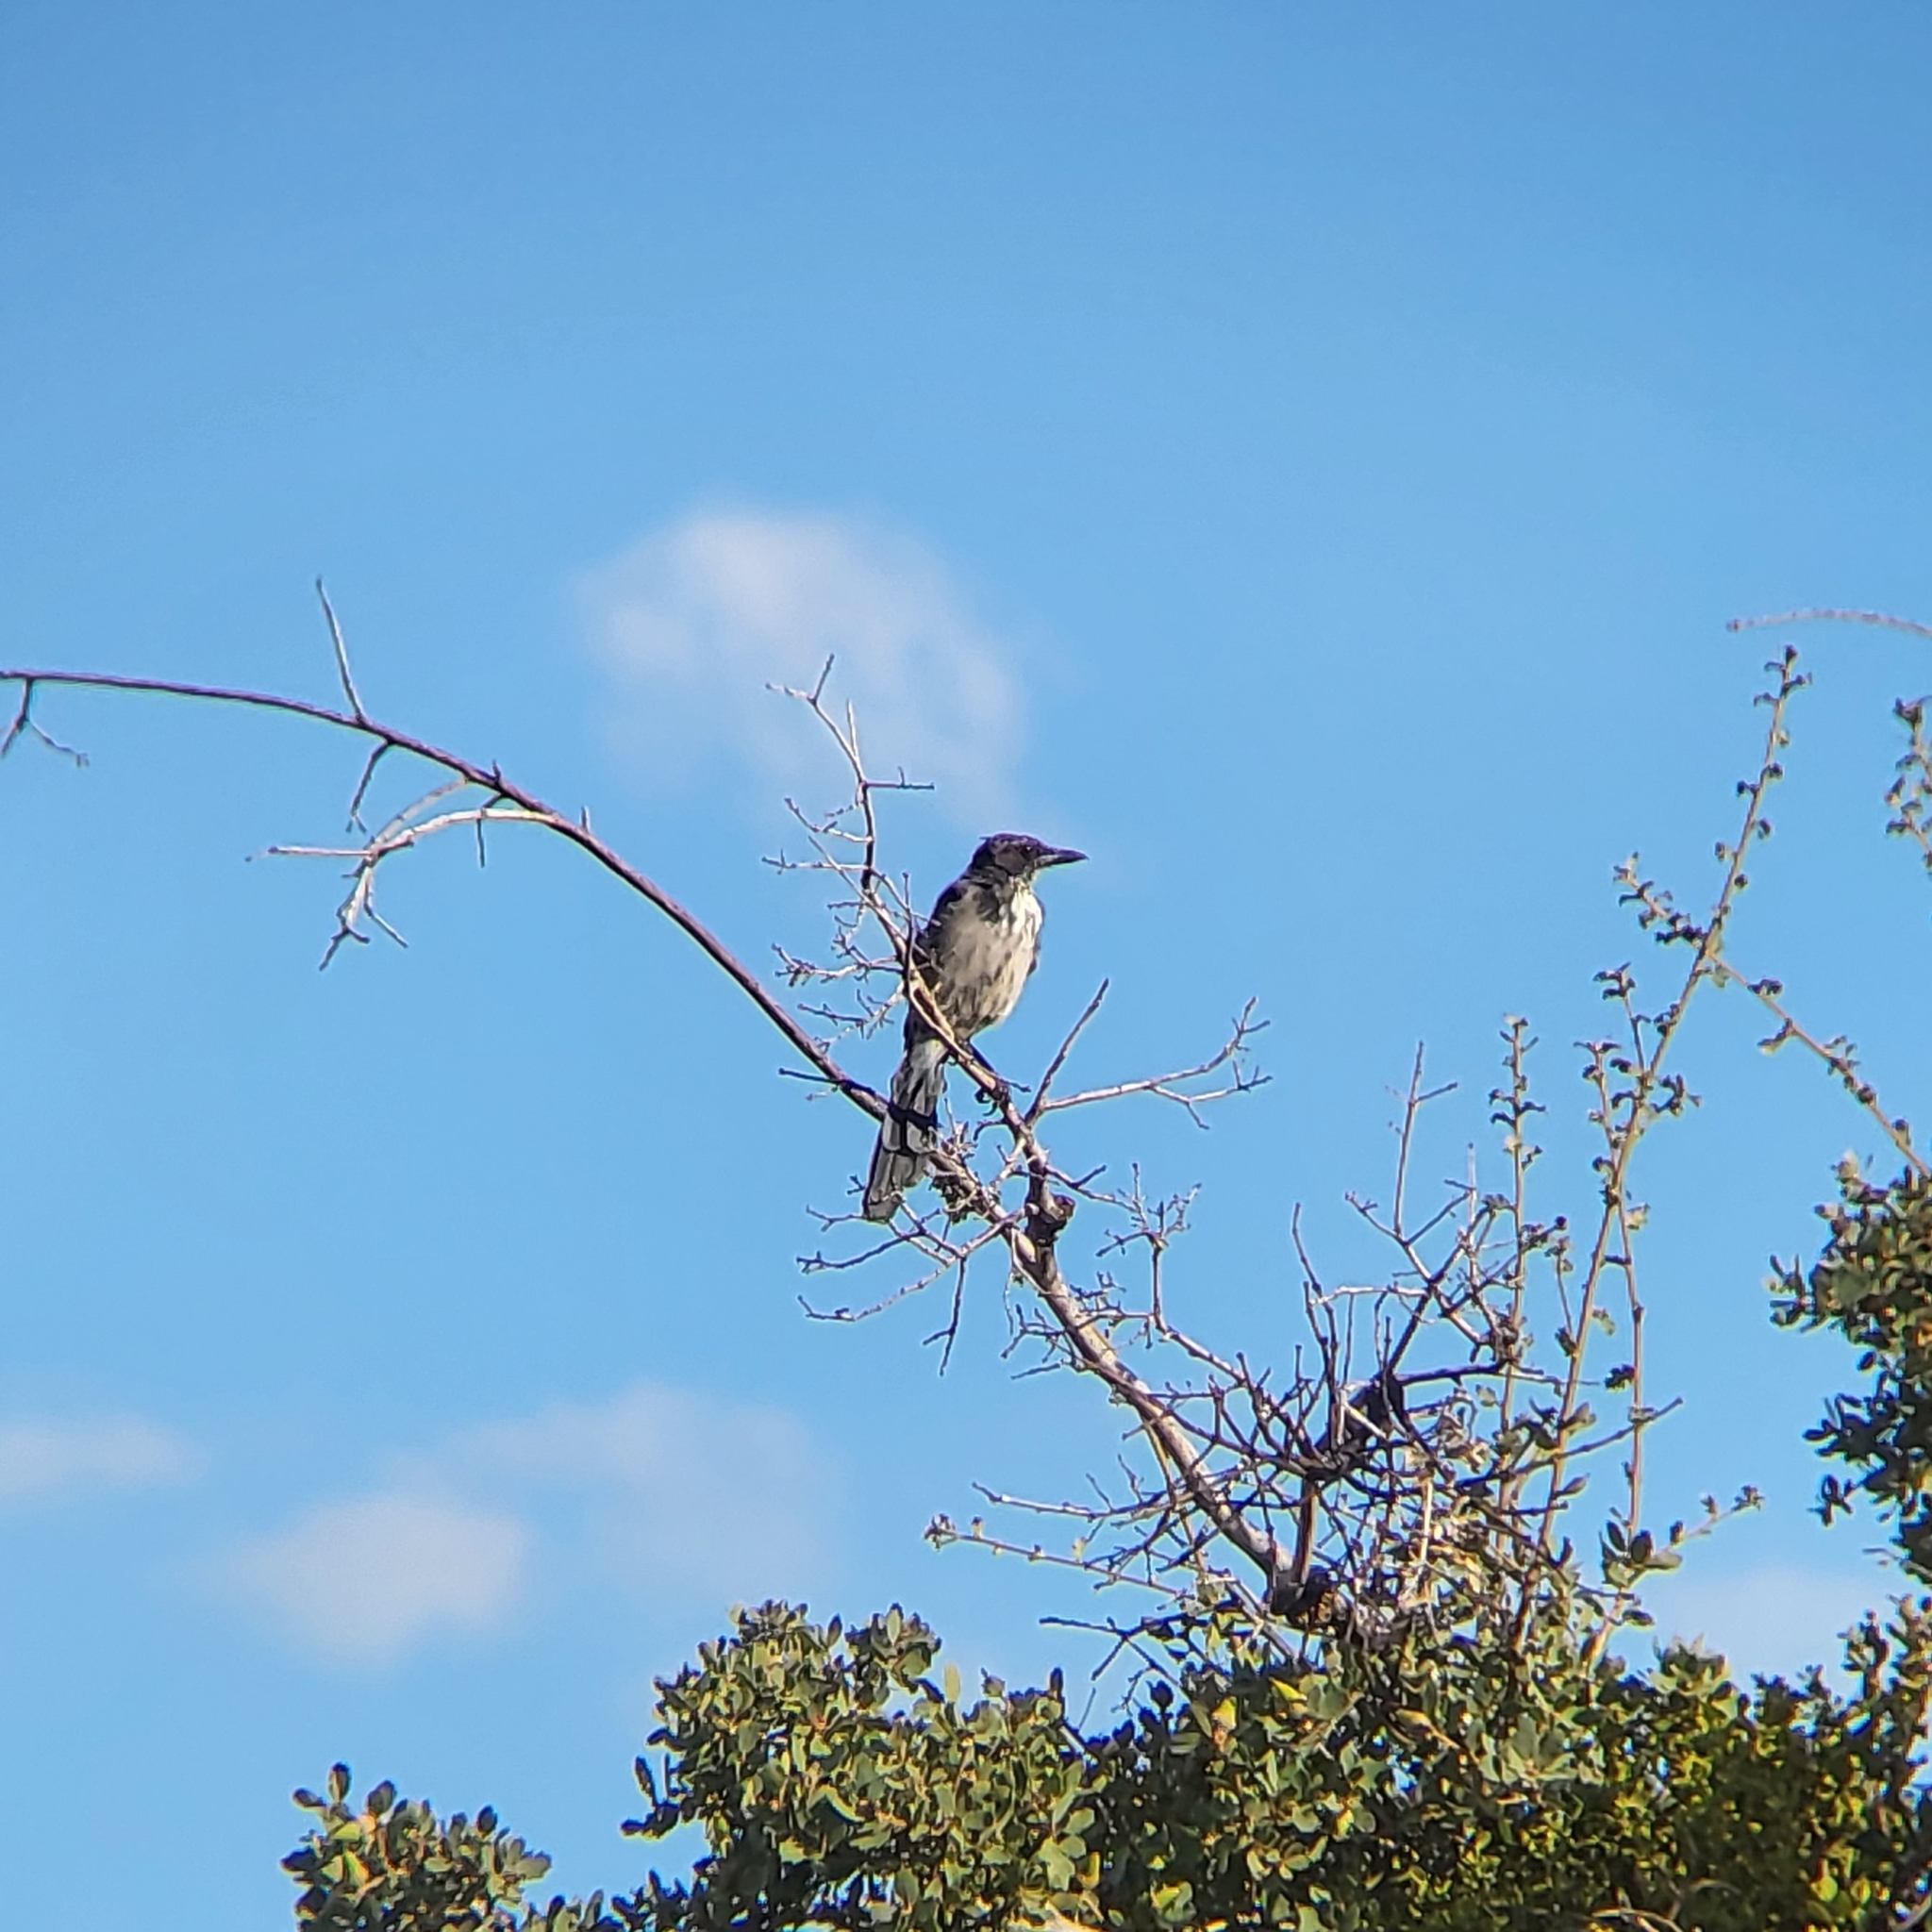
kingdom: Animalia
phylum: Chordata
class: Aves
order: Passeriformes
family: Corvidae
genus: Aphelocoma
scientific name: Aphelocoma californica
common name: California scrub-jay
